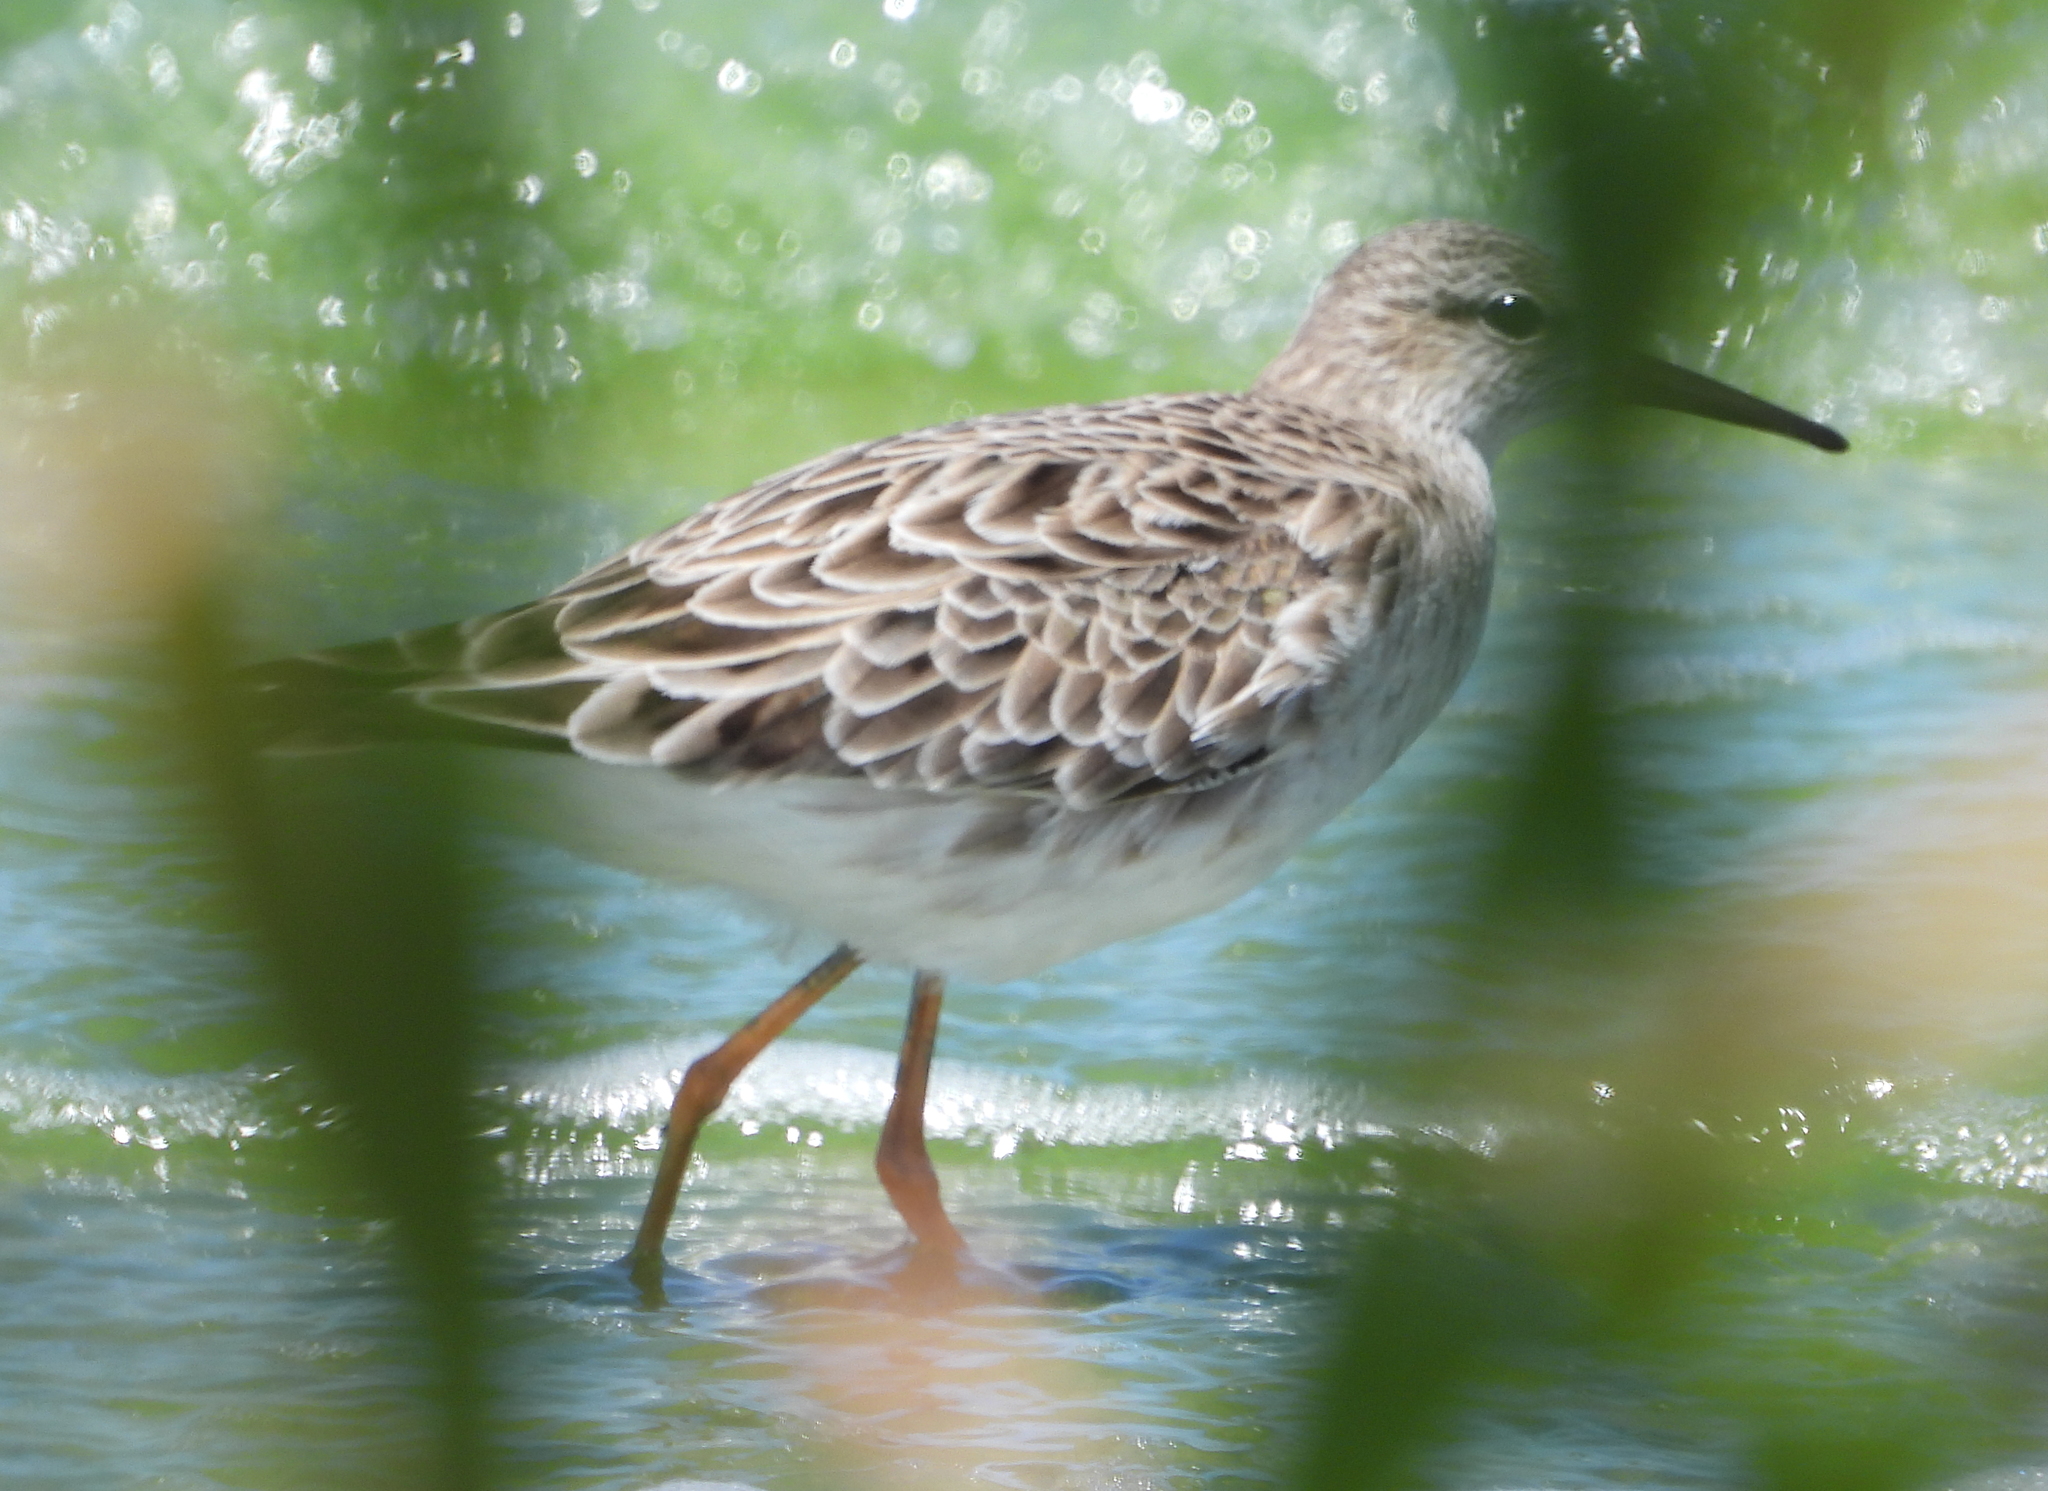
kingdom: Animalia
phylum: Chordata
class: Aves
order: Charadriiformes
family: Scolopacidae
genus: Calidris
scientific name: Calidris pugnax
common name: Ruff
